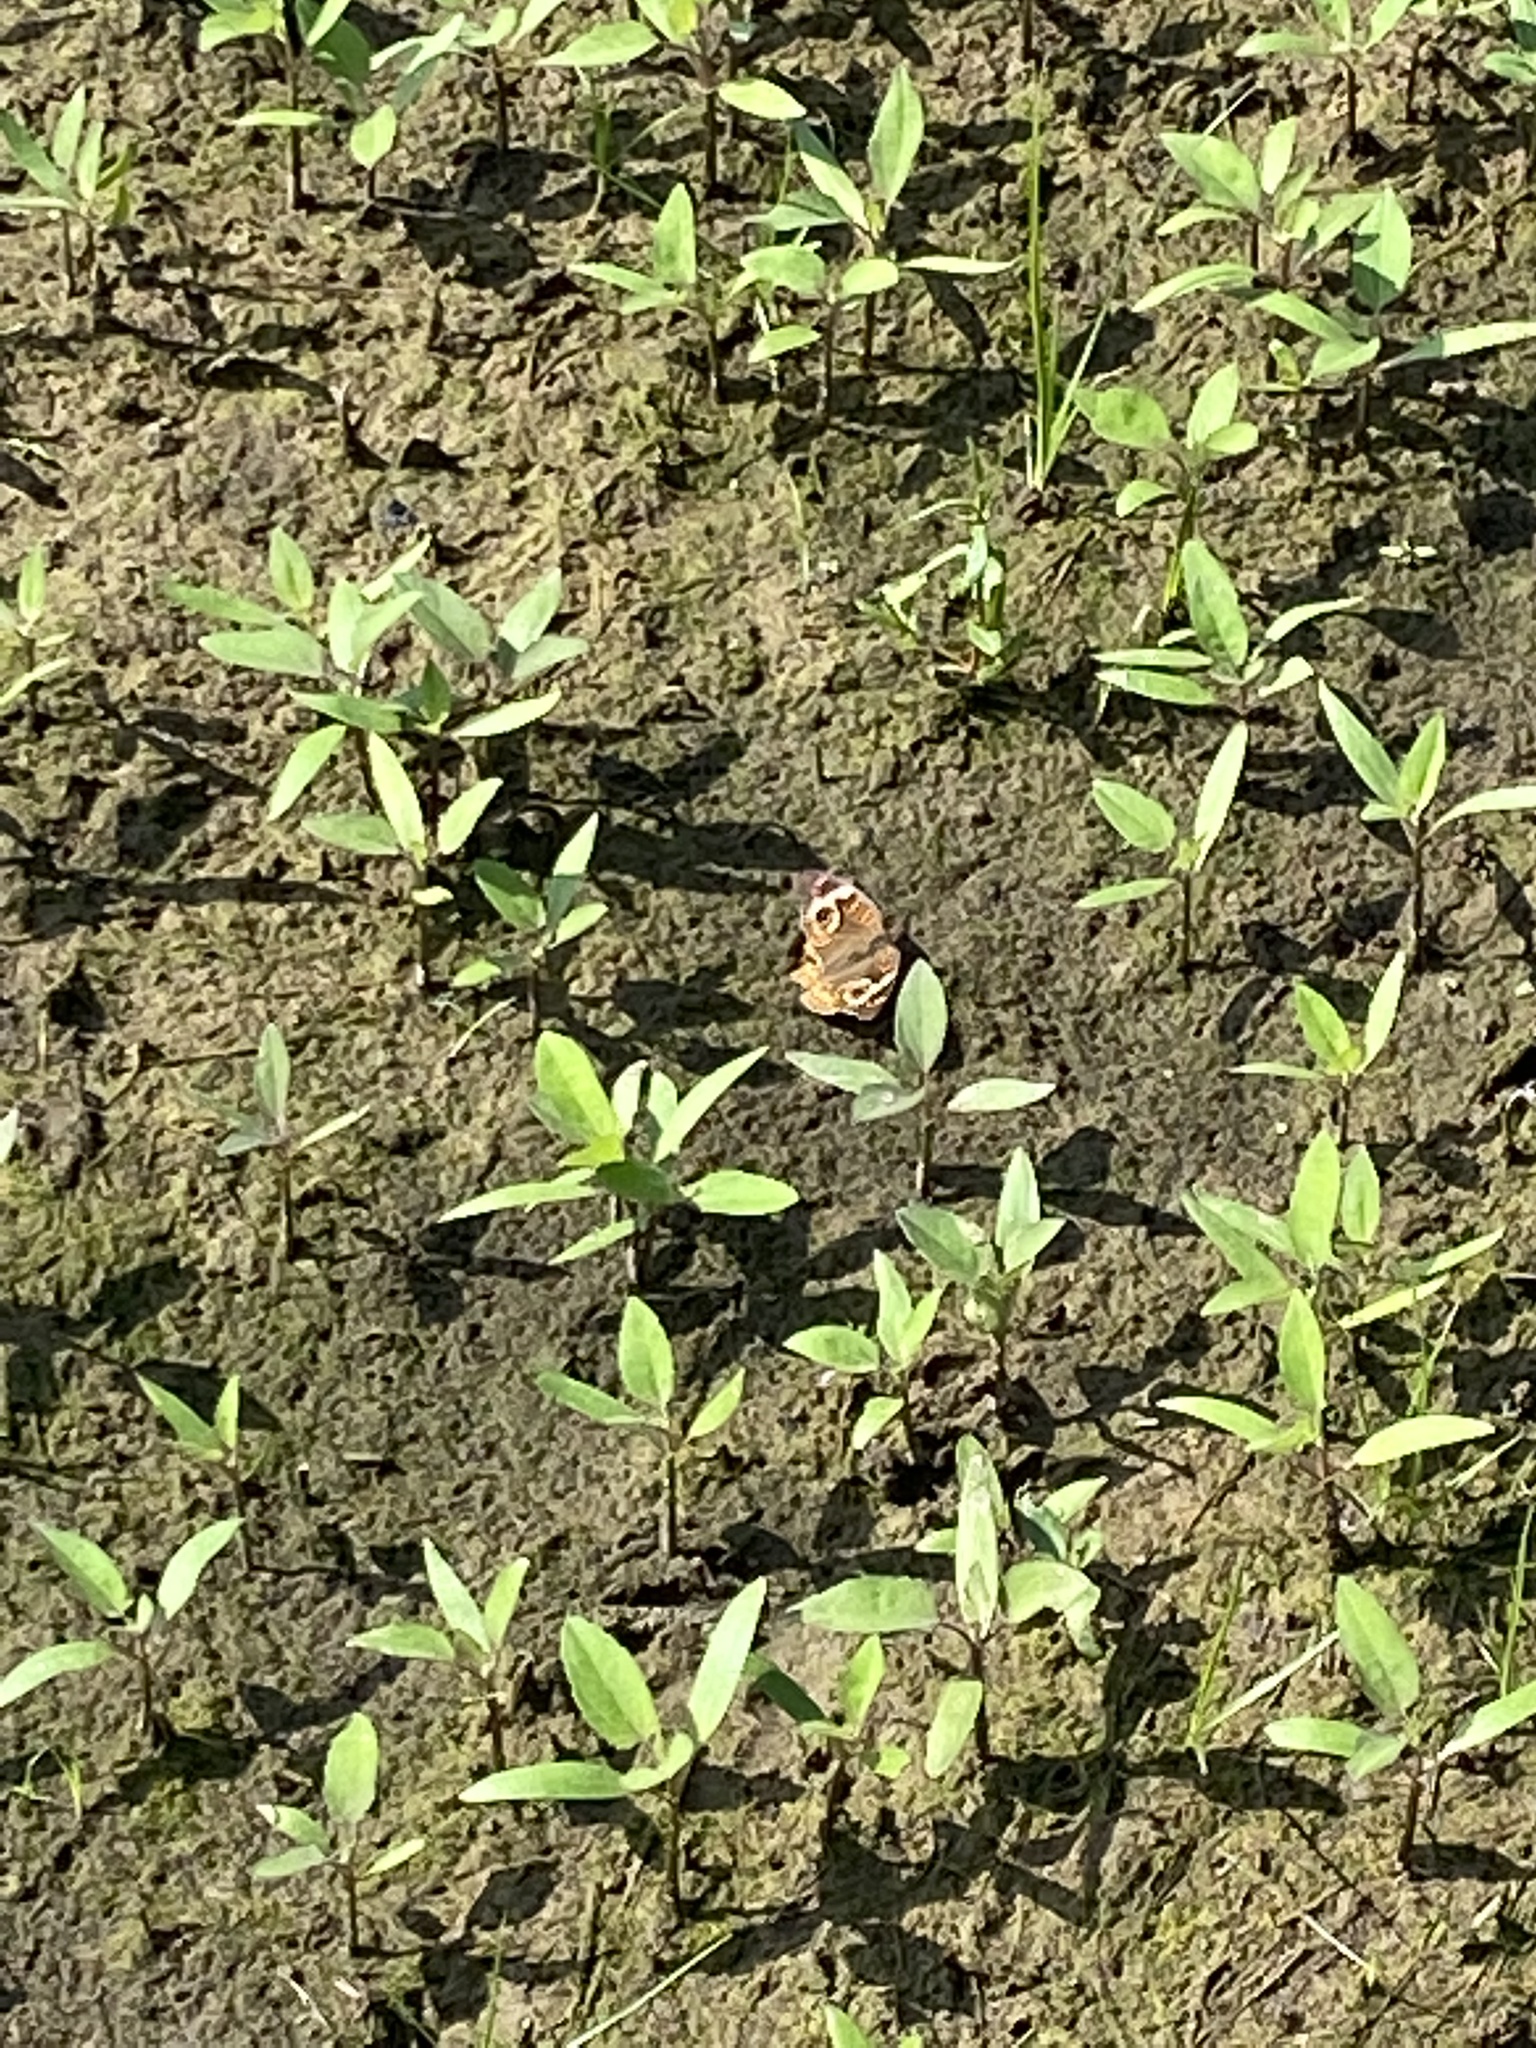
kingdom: Animalia
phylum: Arthropoda
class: Insecta
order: Lepidoptera
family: Nymphalidae
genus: Junonia
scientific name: Junonia coenia
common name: Common buckeye
